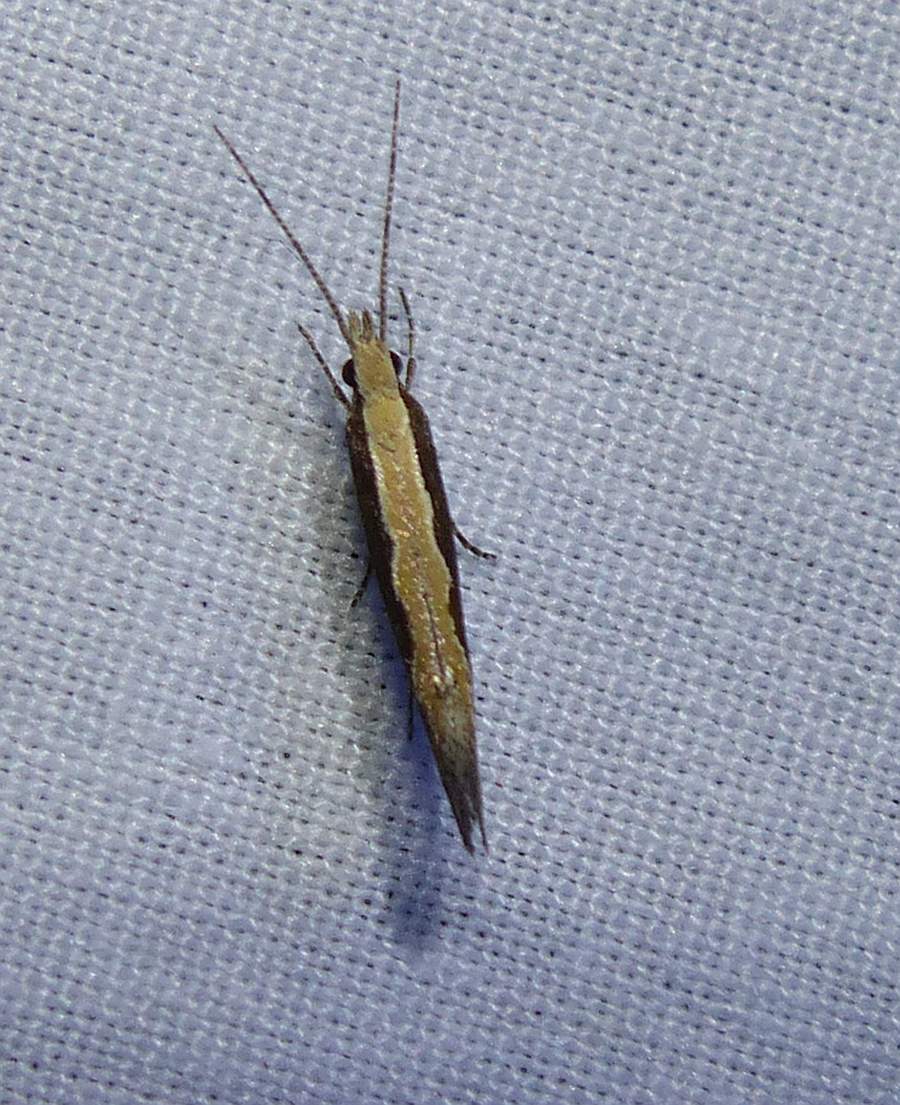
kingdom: Animalia
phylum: Arthropoda
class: Insecta
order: Lepidoptera
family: Plutellidae
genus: Plutella
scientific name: Plutella xylostella
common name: Diamond-back moth
